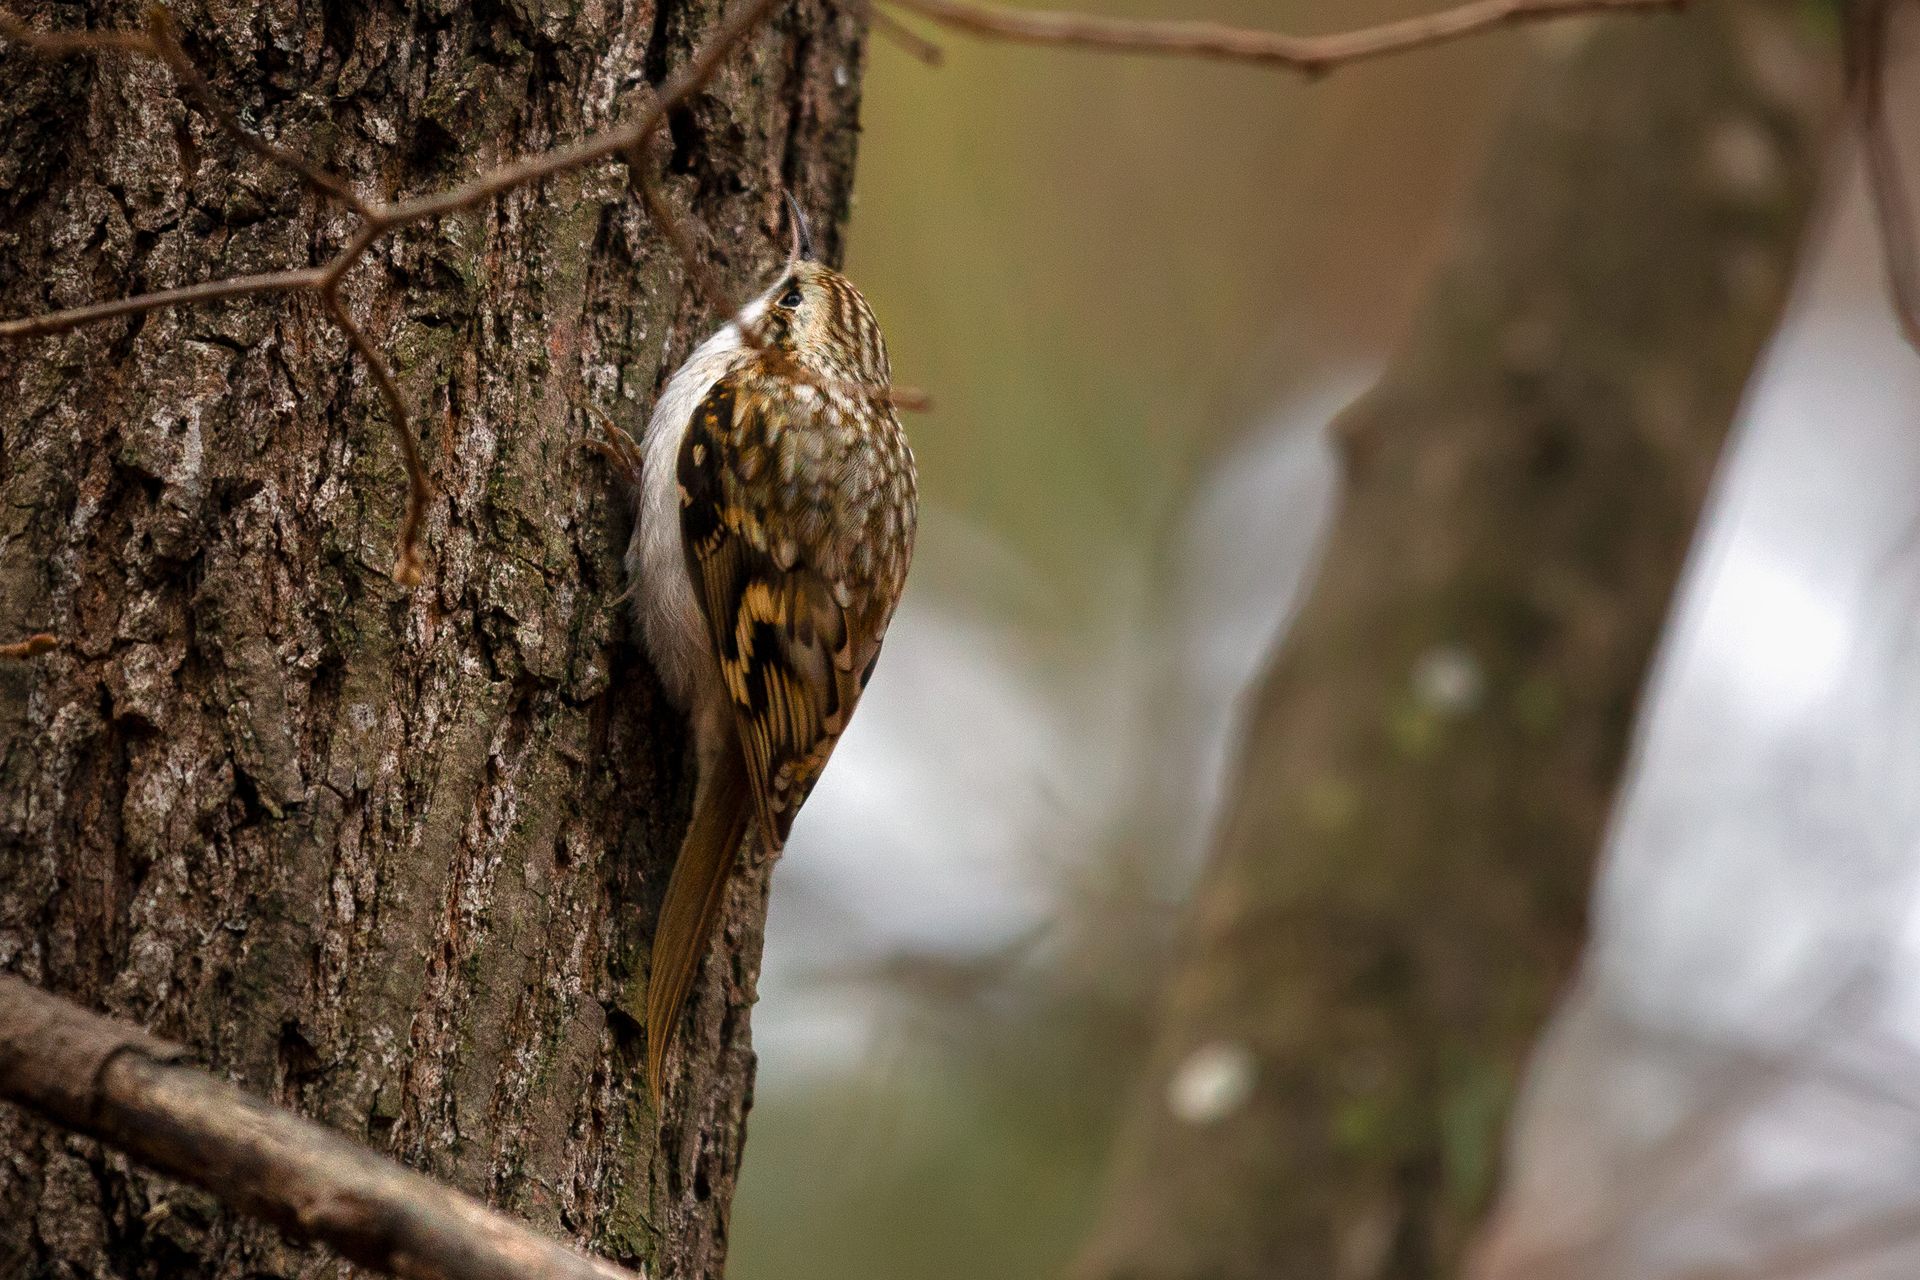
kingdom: Animalia
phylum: Chordata
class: Aves
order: Passeriformes
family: Certhiidae
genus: Certhia
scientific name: Certhia familiaris
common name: Eurasian treecreeper
